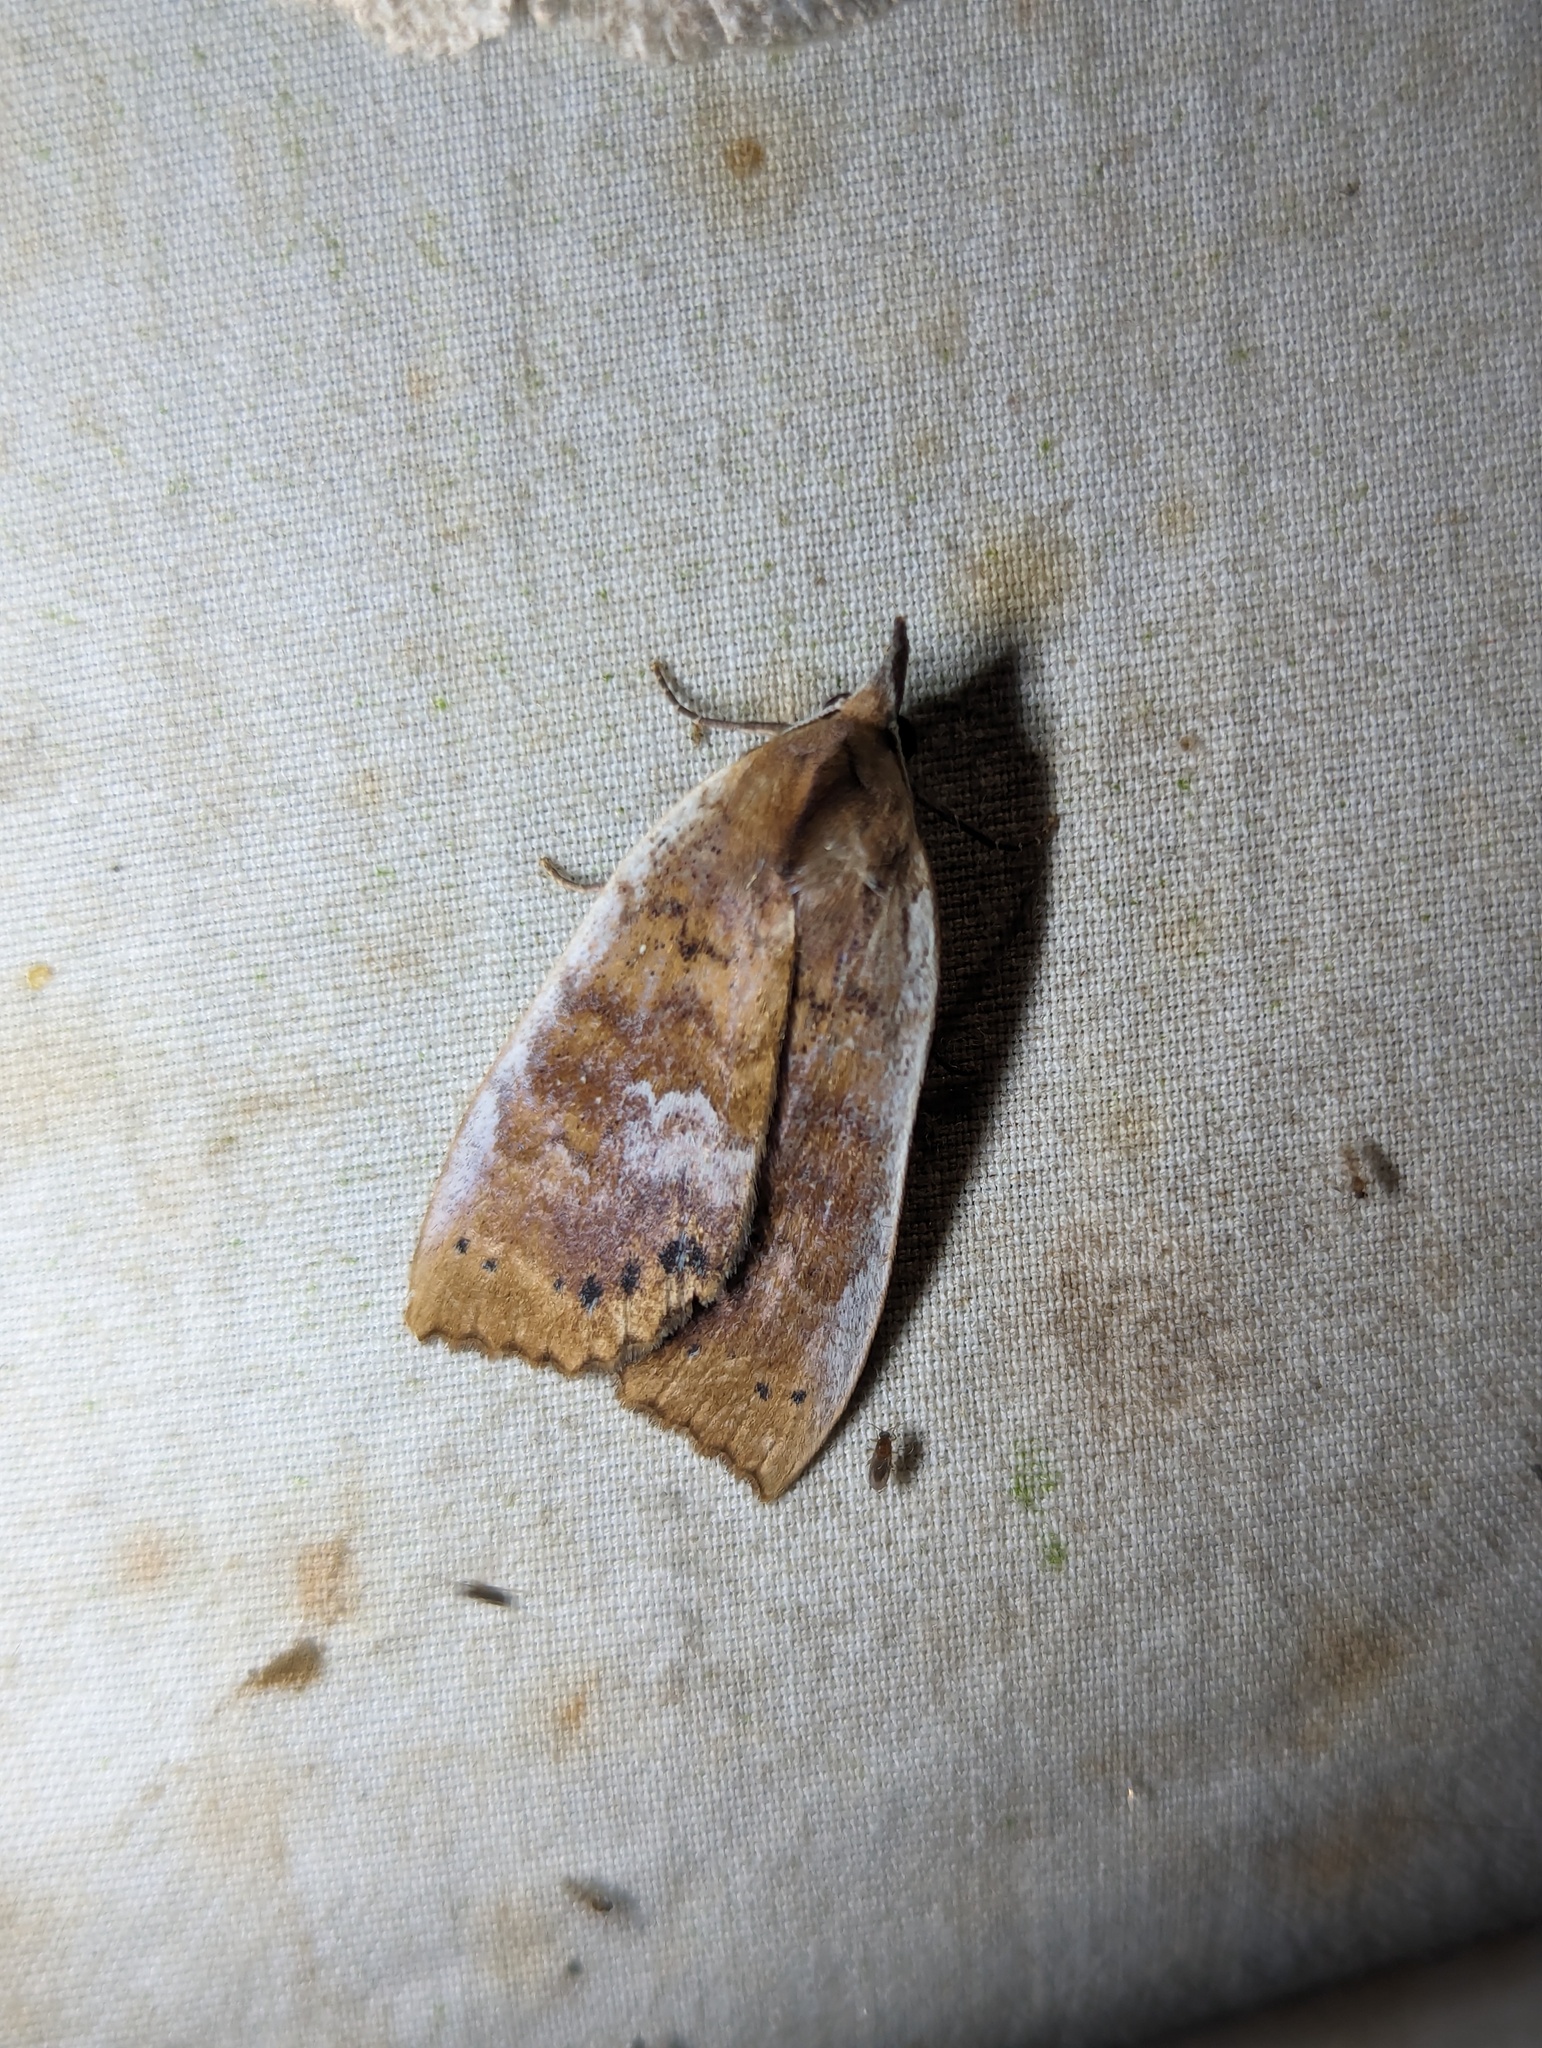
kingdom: Animalia
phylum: Arthropoda
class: Insecta
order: Lepidoptera
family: Erebidae
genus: Ipnista
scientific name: Ipnista marina
